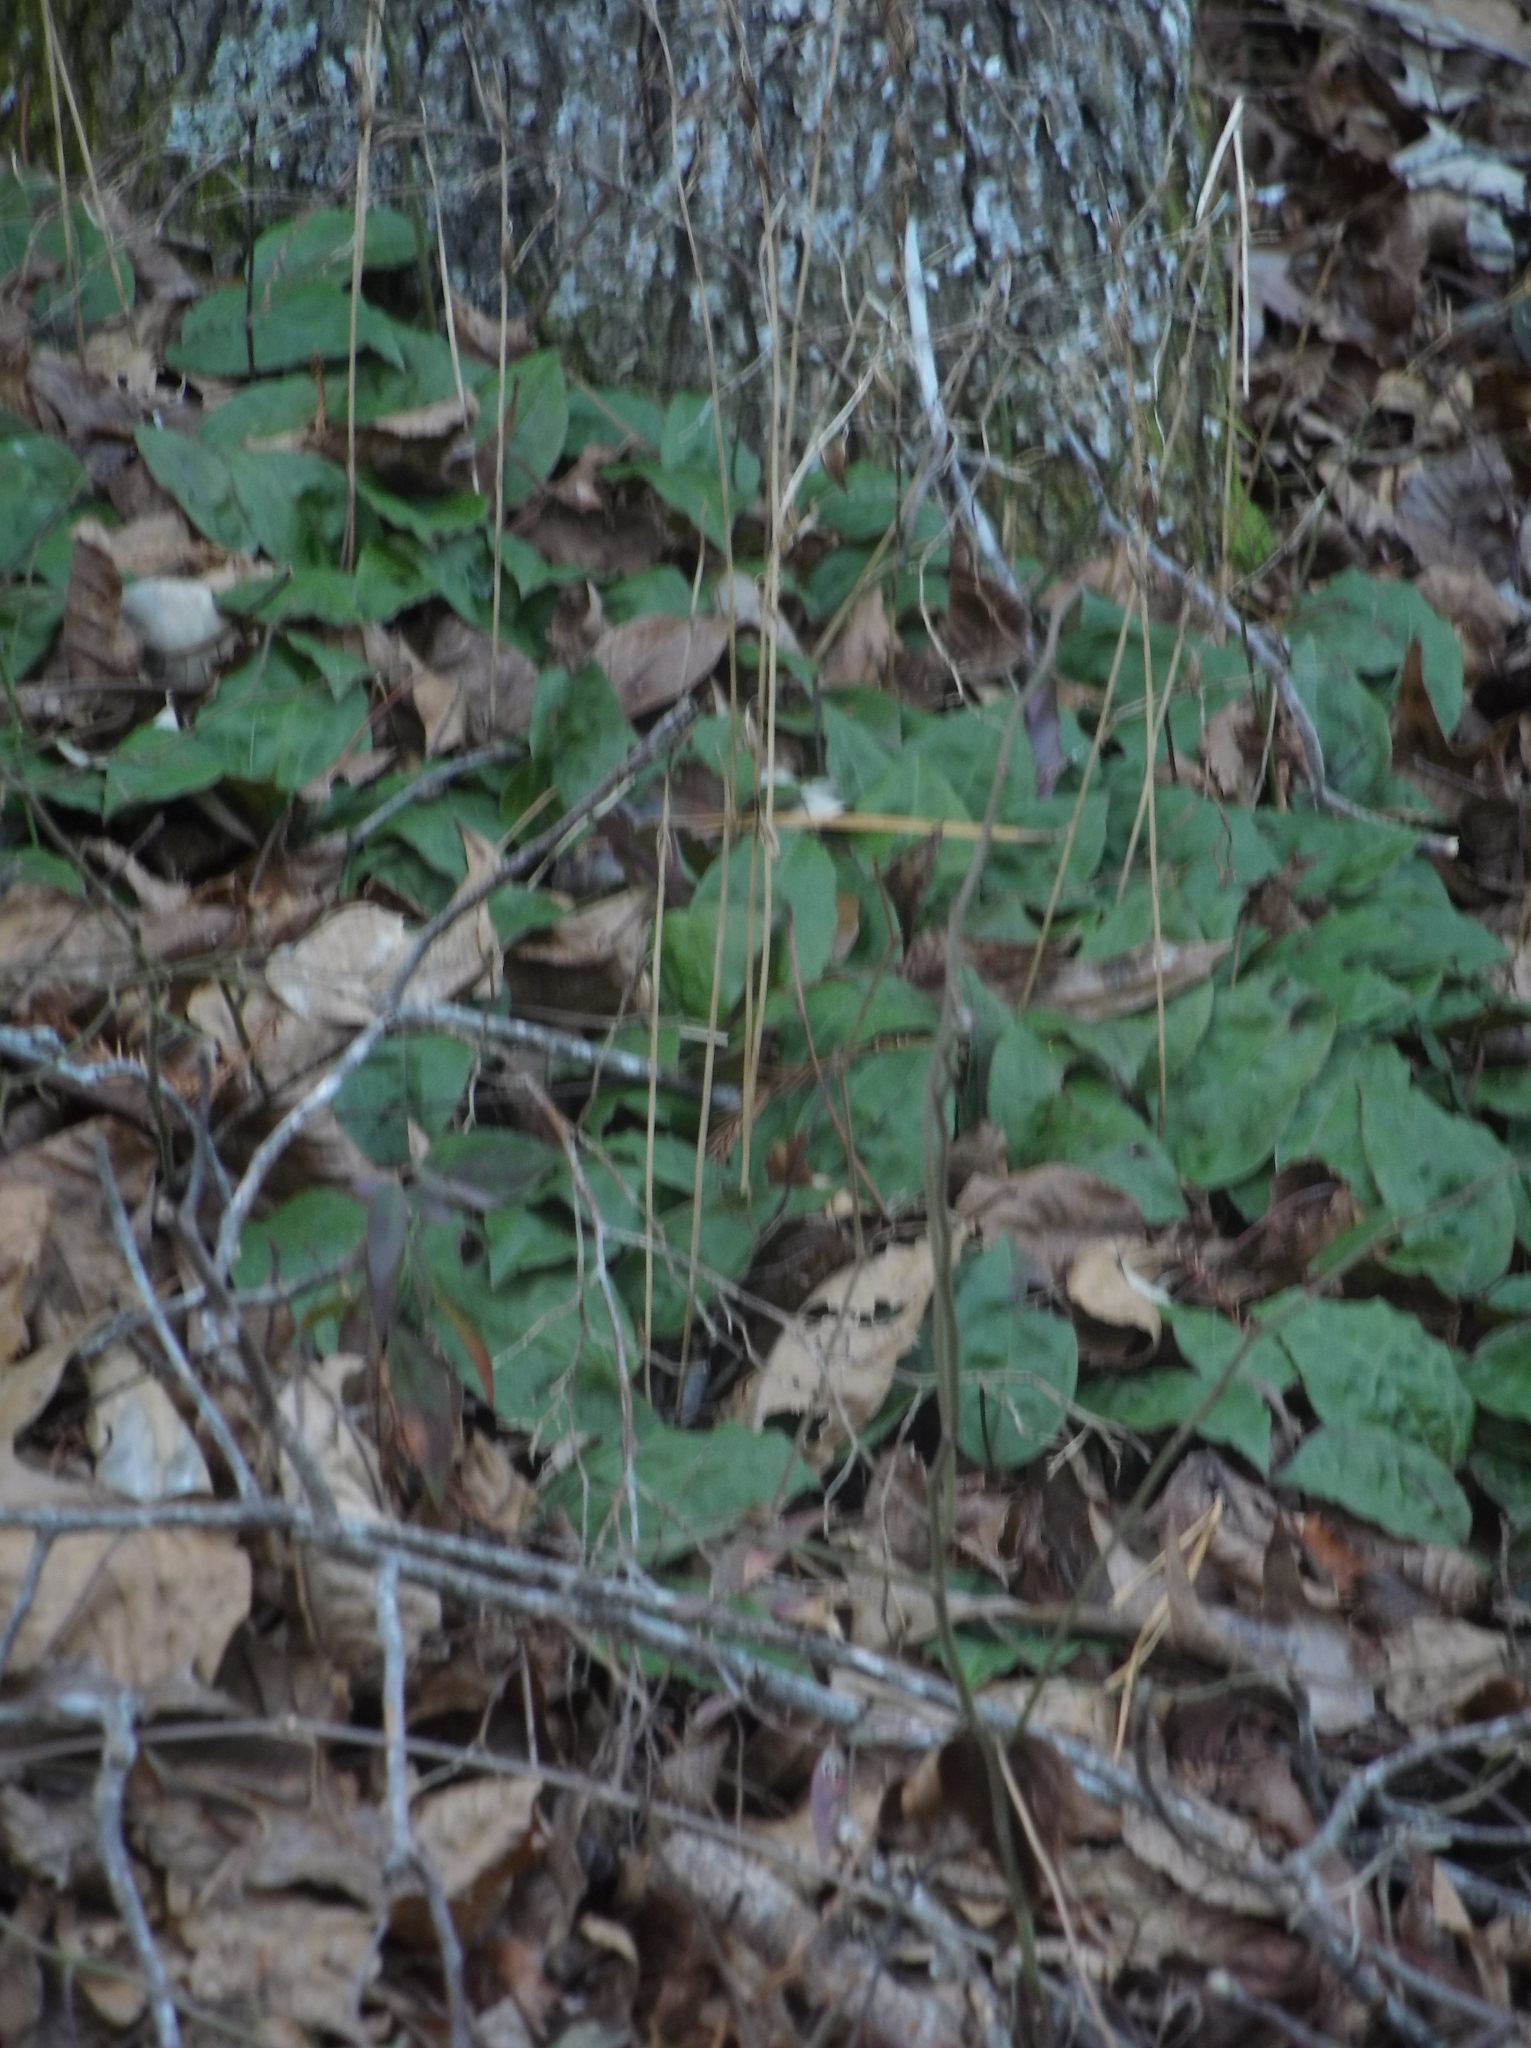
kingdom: Plantae
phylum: Tracheophyta
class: Liliopsida
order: Asparagales
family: Orchidaceae
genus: Tipularia
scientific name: Tipularia discolor
